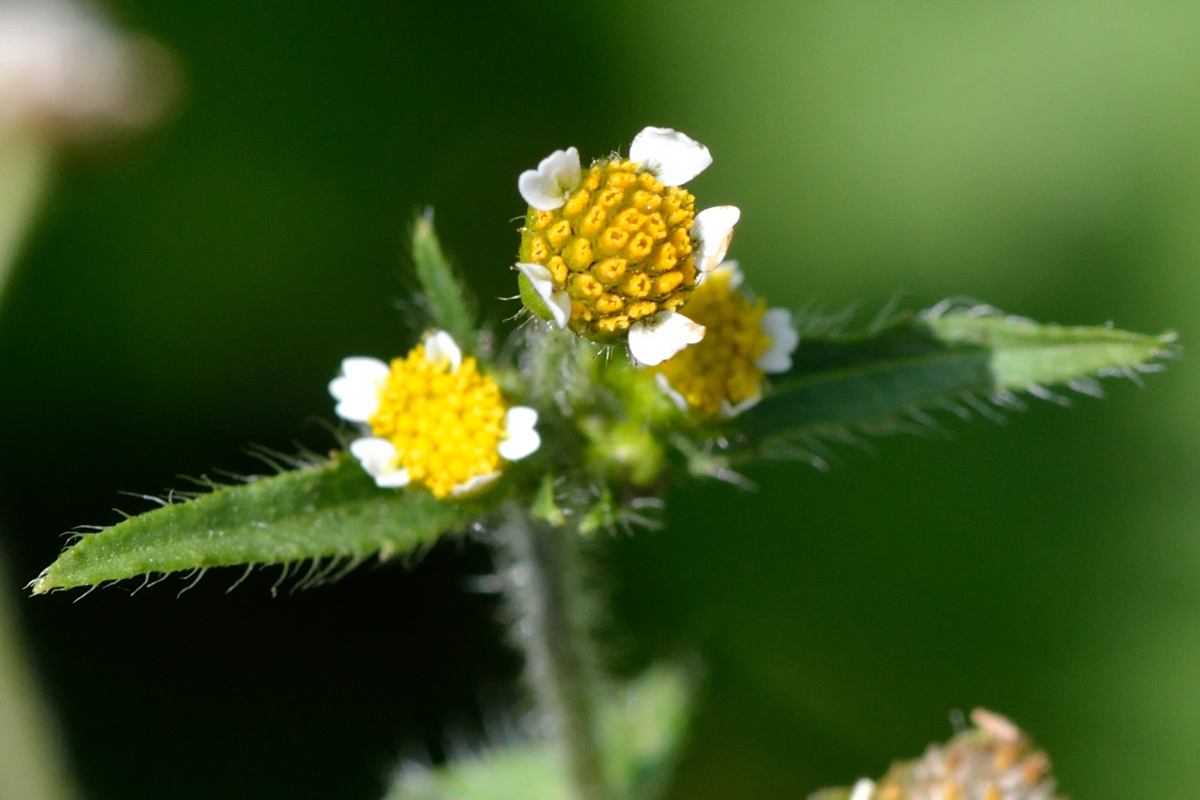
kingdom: Plantae
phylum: Tracheophyta
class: Magnoliopsida
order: Asterales
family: Asteraceae
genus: Galinsoga
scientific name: Galinsoga quadriradiata
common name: Shaggy soldier
